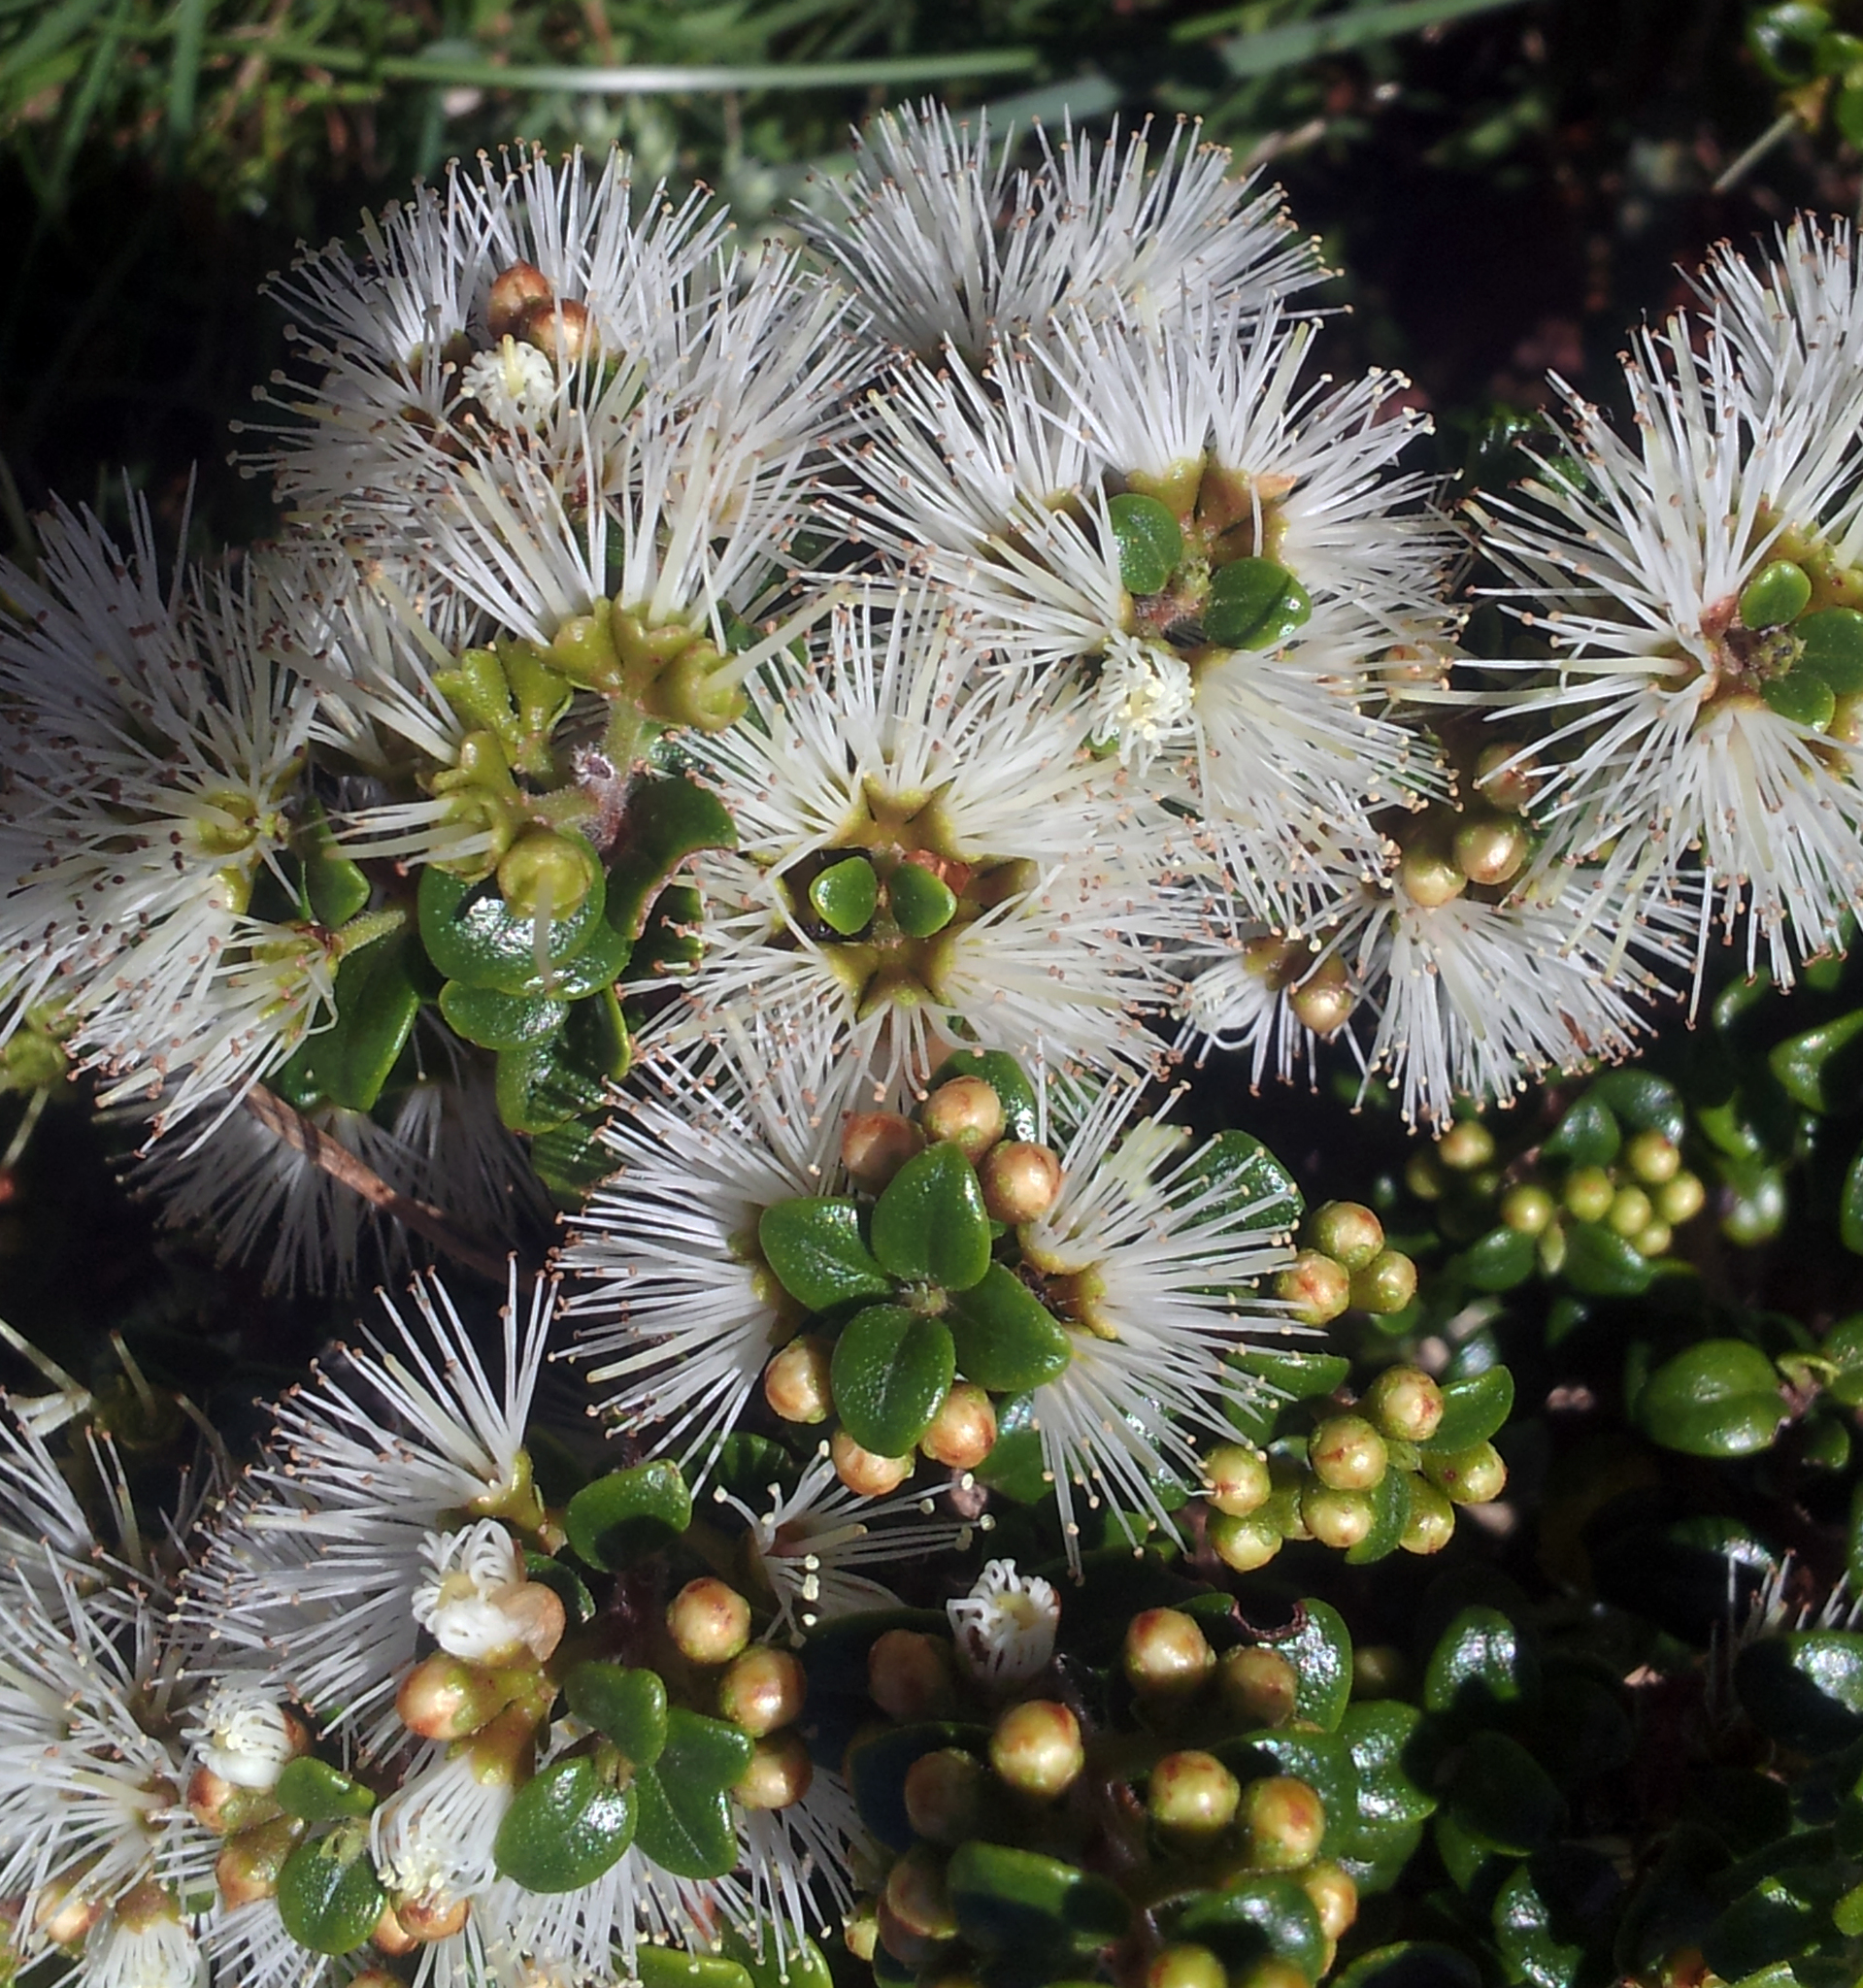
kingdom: Plantae
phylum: Tracheophyta
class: Magnoliopsida
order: Myrtales
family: Myrtaceae
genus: Metrosideros
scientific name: Metrosideros perforata
